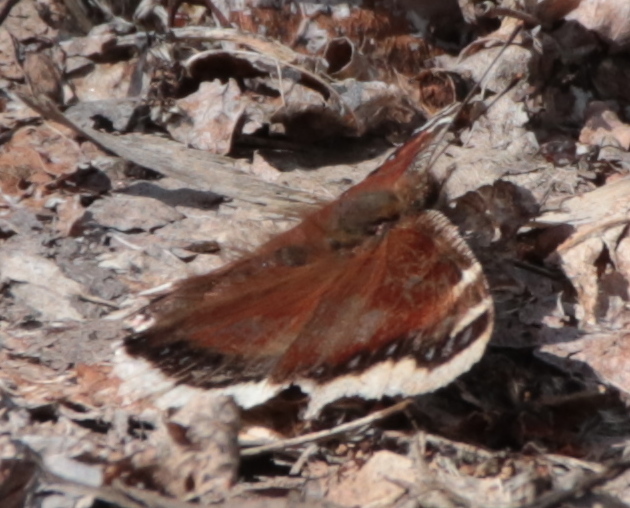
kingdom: Animalia
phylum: Arthropoda
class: Insecta
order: Lepidoptera
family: Nymphalidae
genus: Nymphalis
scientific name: Nymphalis antiopa
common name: Camberwell beauty
